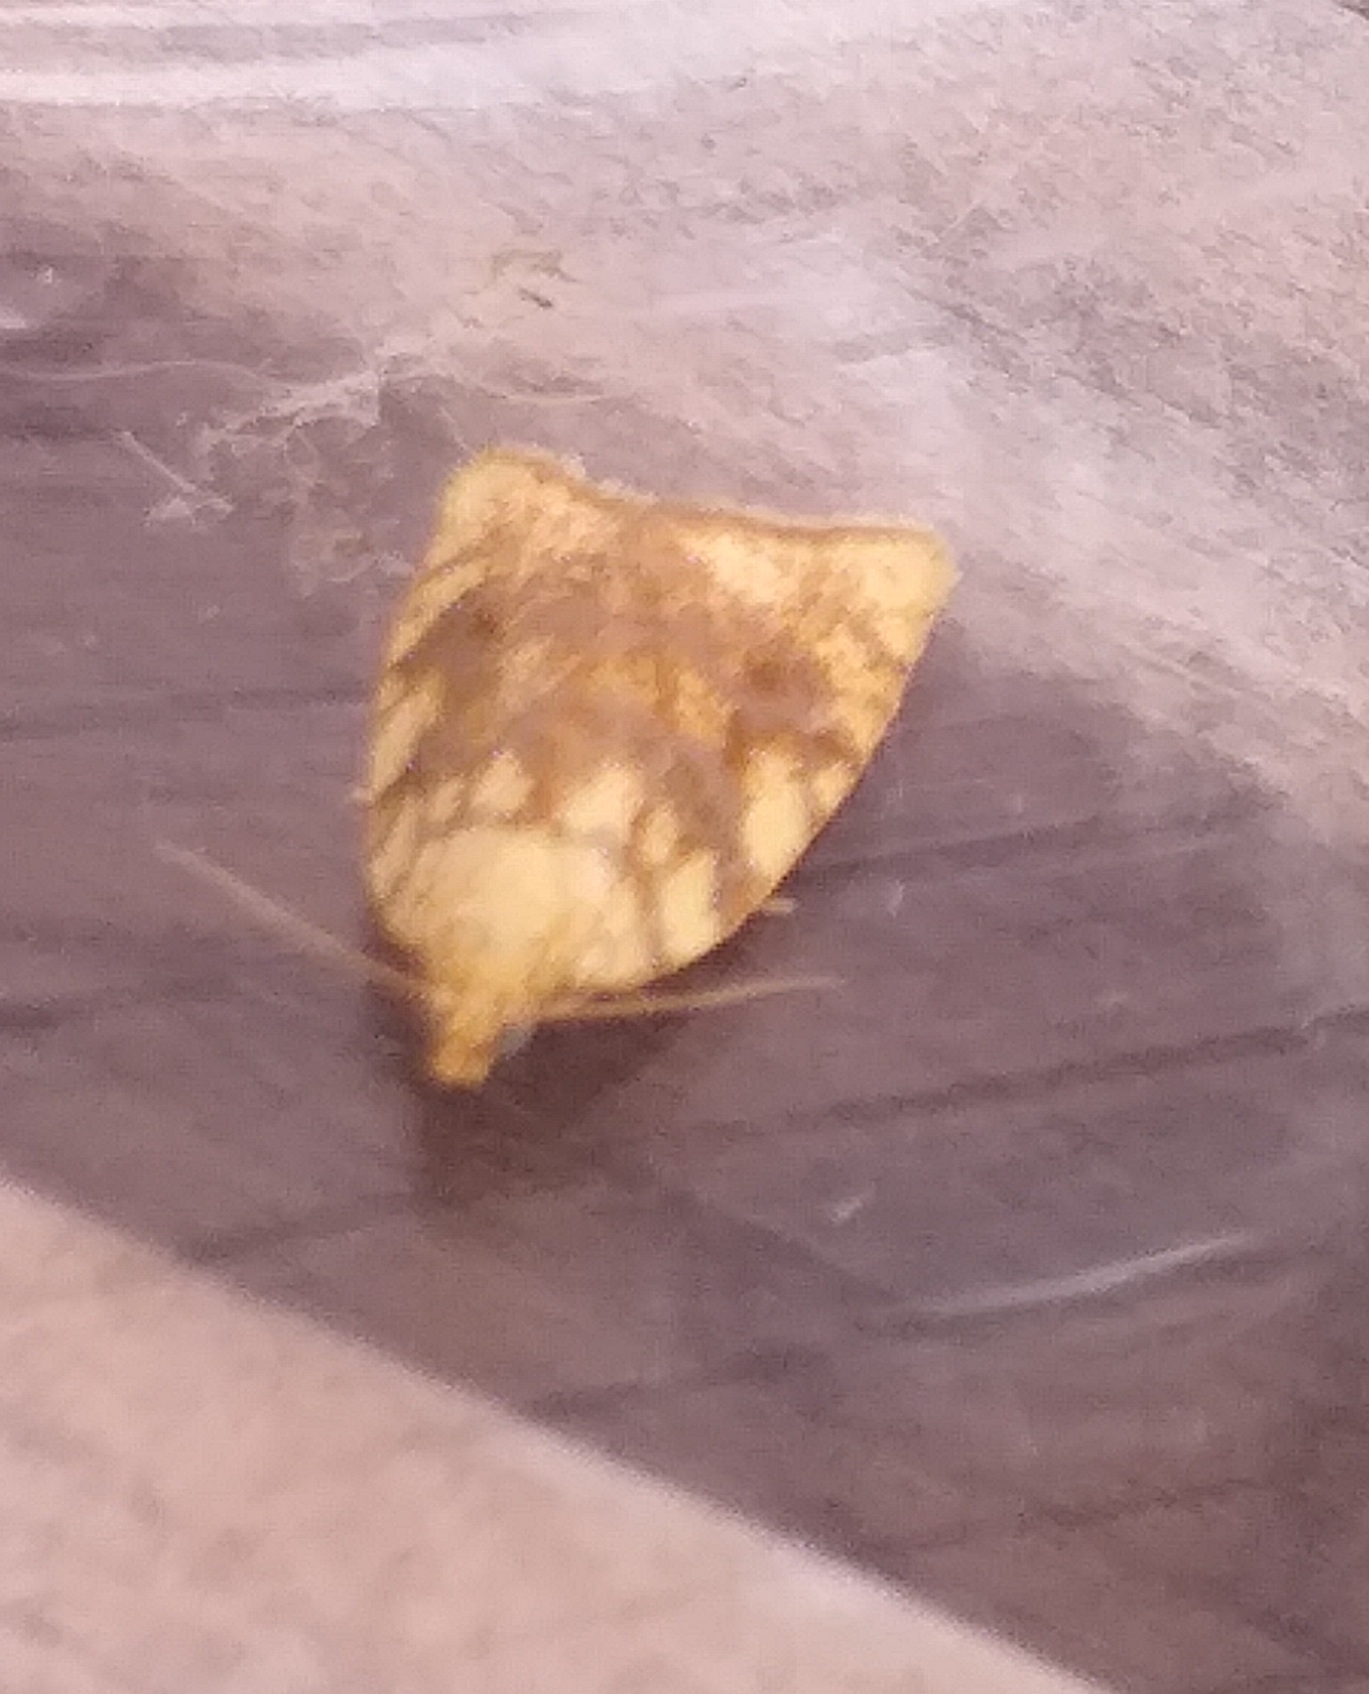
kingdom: Animalia
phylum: Arthropoda
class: Insecta
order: Lepidoptera
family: Tortricidae
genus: Aleimma
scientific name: Aleimma loeflingiana
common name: Yellow oak button
